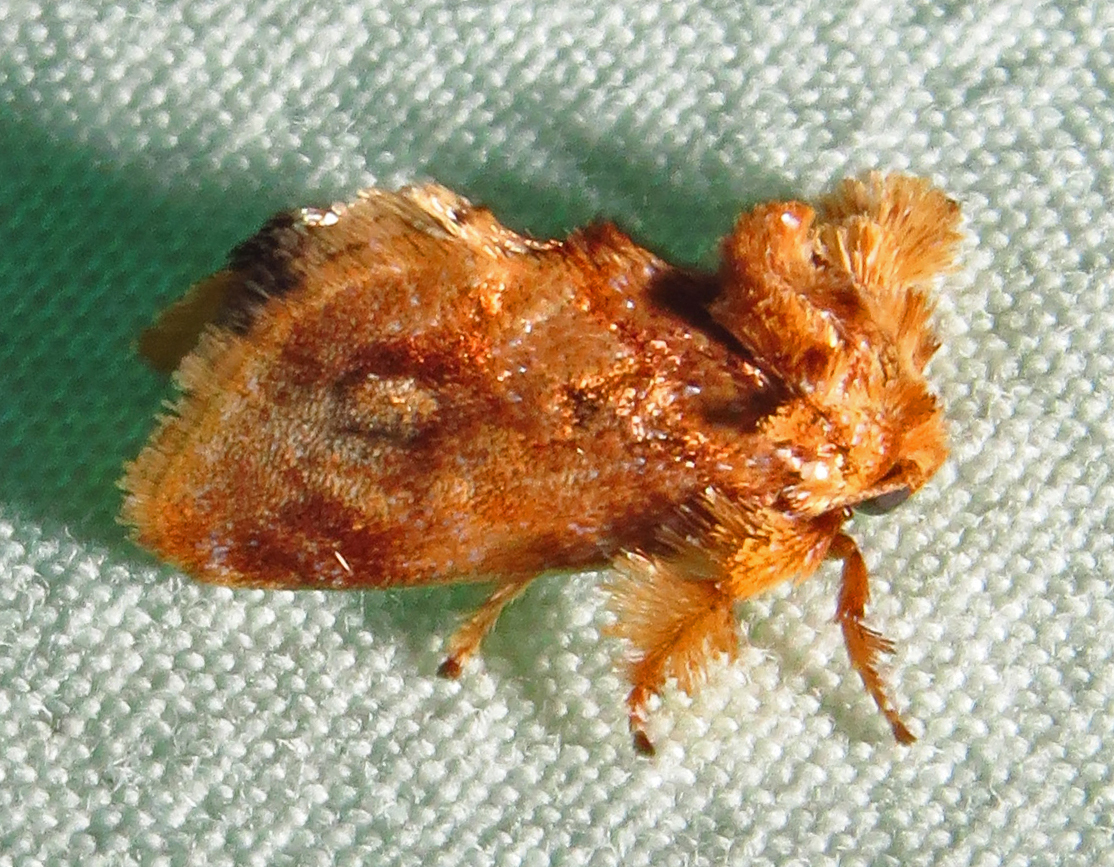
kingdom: Animalia
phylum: Arthropoda
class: Insecta
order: Lepidoptera
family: Limacodidae
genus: Isochaetes
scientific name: Isochaetes beutenmuelleri
